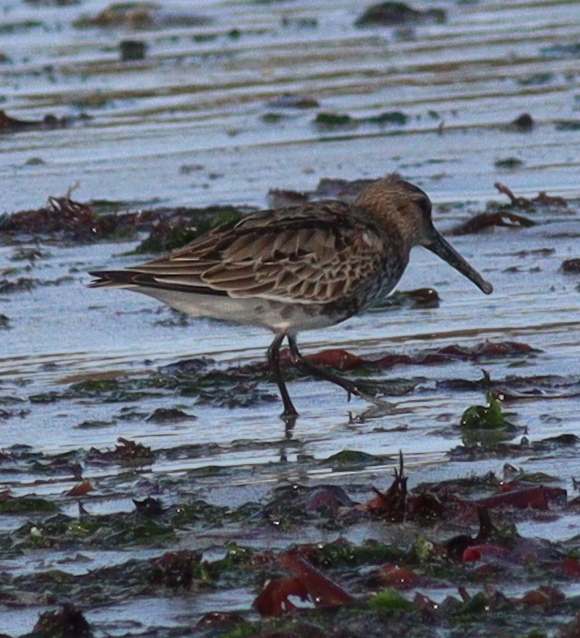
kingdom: Animalia
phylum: Chordata
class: Aves
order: Charadriiformes
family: Scolopacidae
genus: Calidris
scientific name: Calidris alpina
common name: Dunlin
